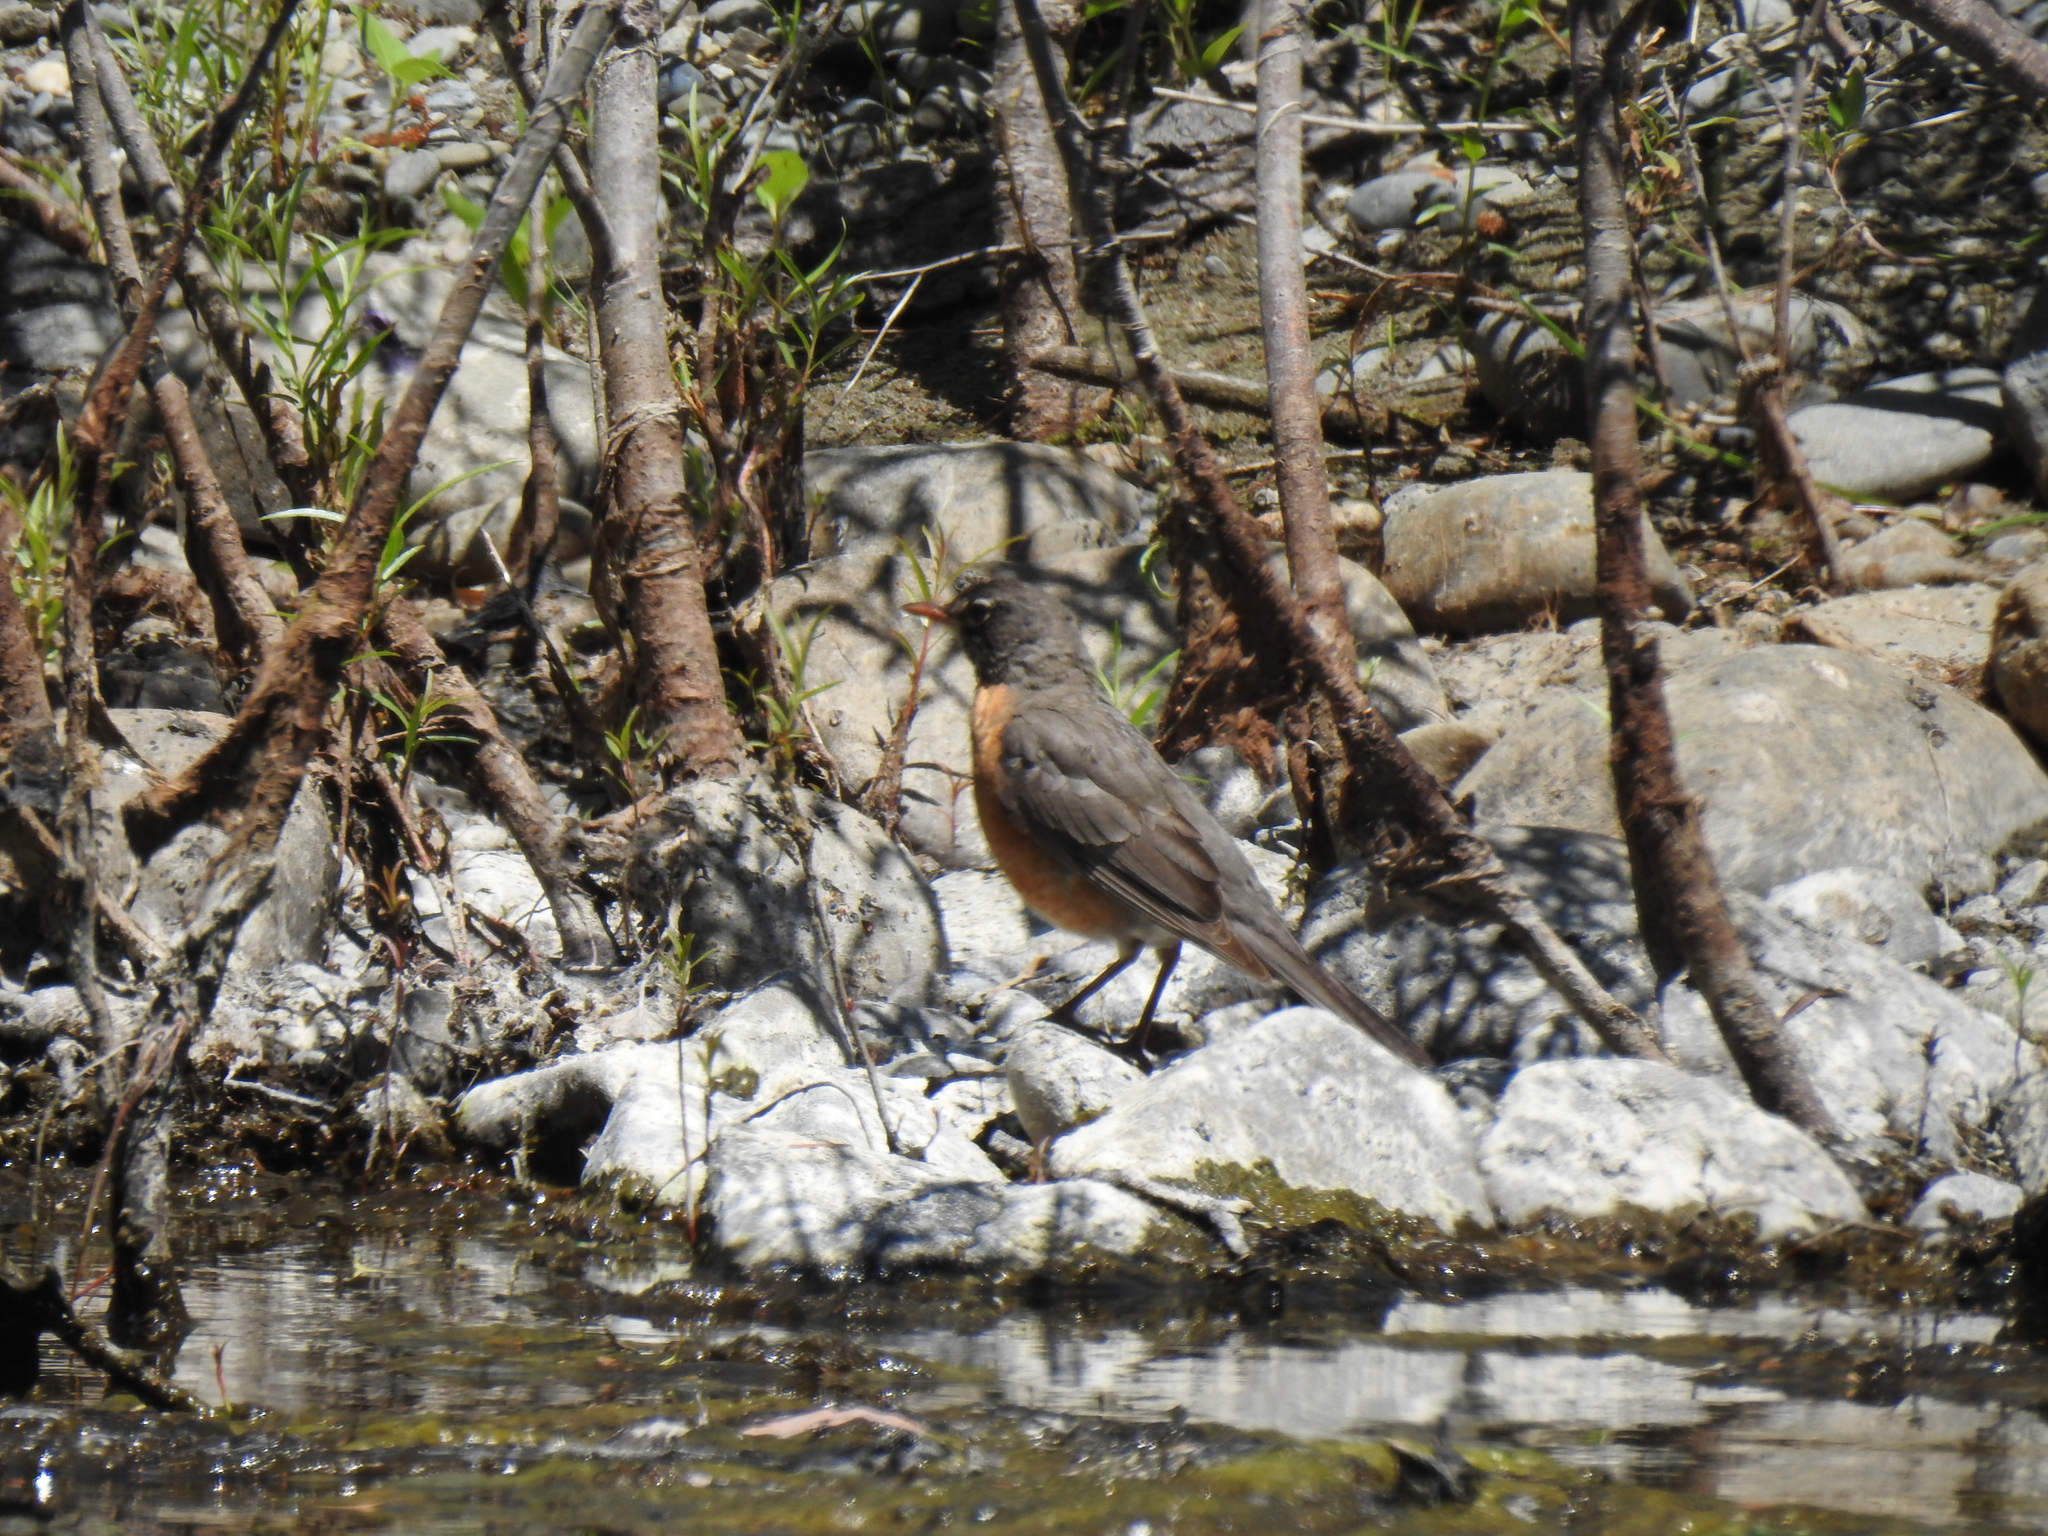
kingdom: Animalia
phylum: Chordata
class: Aves
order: Passeriformes
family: Turdidae
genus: Turdus
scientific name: Turdus migratorius
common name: American robin
